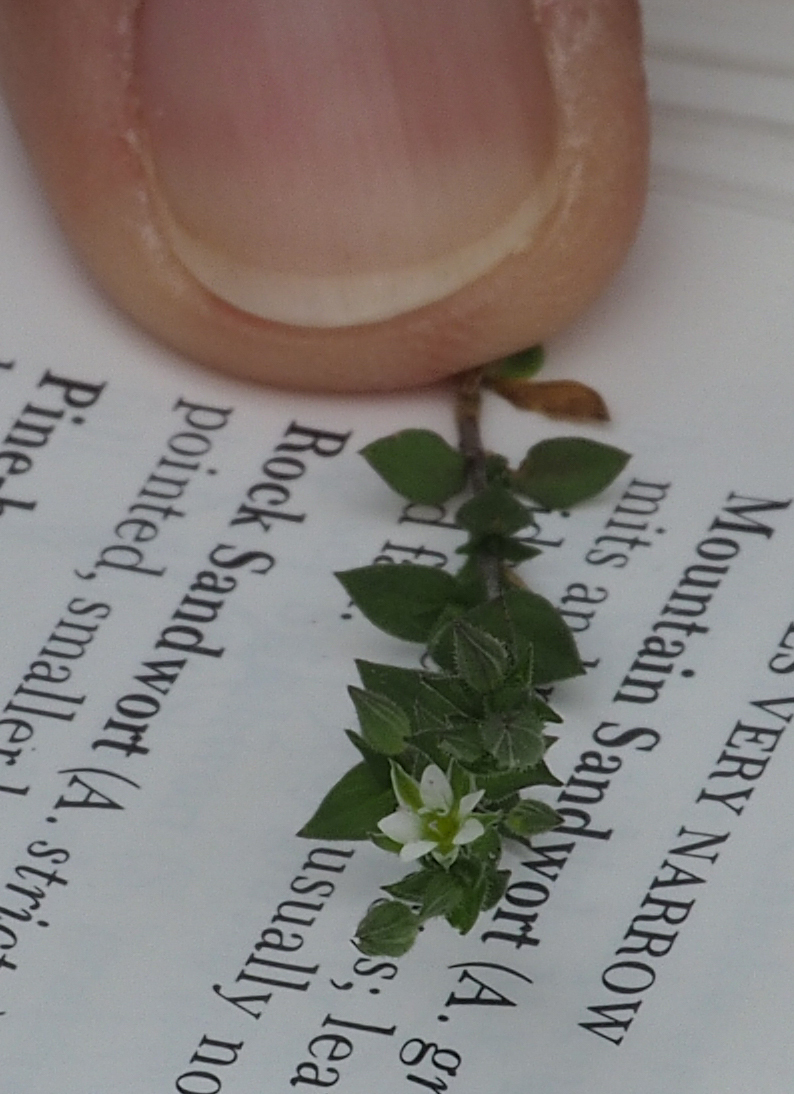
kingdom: Plantae
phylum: Tracheophyta
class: Magnoliopsida
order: Caryophyllales
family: Caryophyllaceae
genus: Arenaria
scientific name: Arenaria serpyllifolia
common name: Thyme-leaved sandwort
